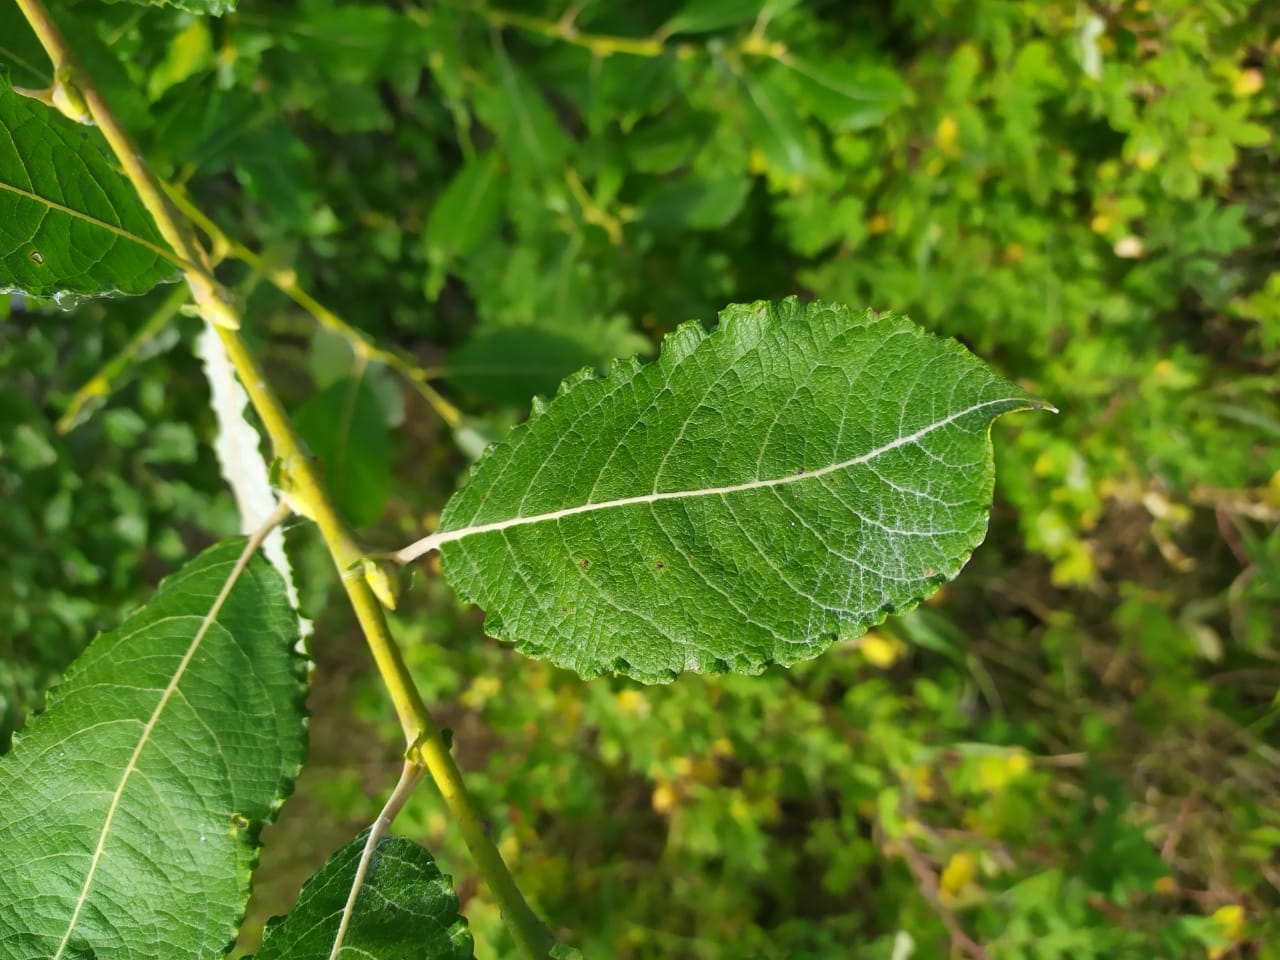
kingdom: Plantae
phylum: Tracheophyta
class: Magnoliopsida
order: Malpighiales
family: Salicaceae
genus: Salix
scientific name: Salix caprea
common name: Goat willow
